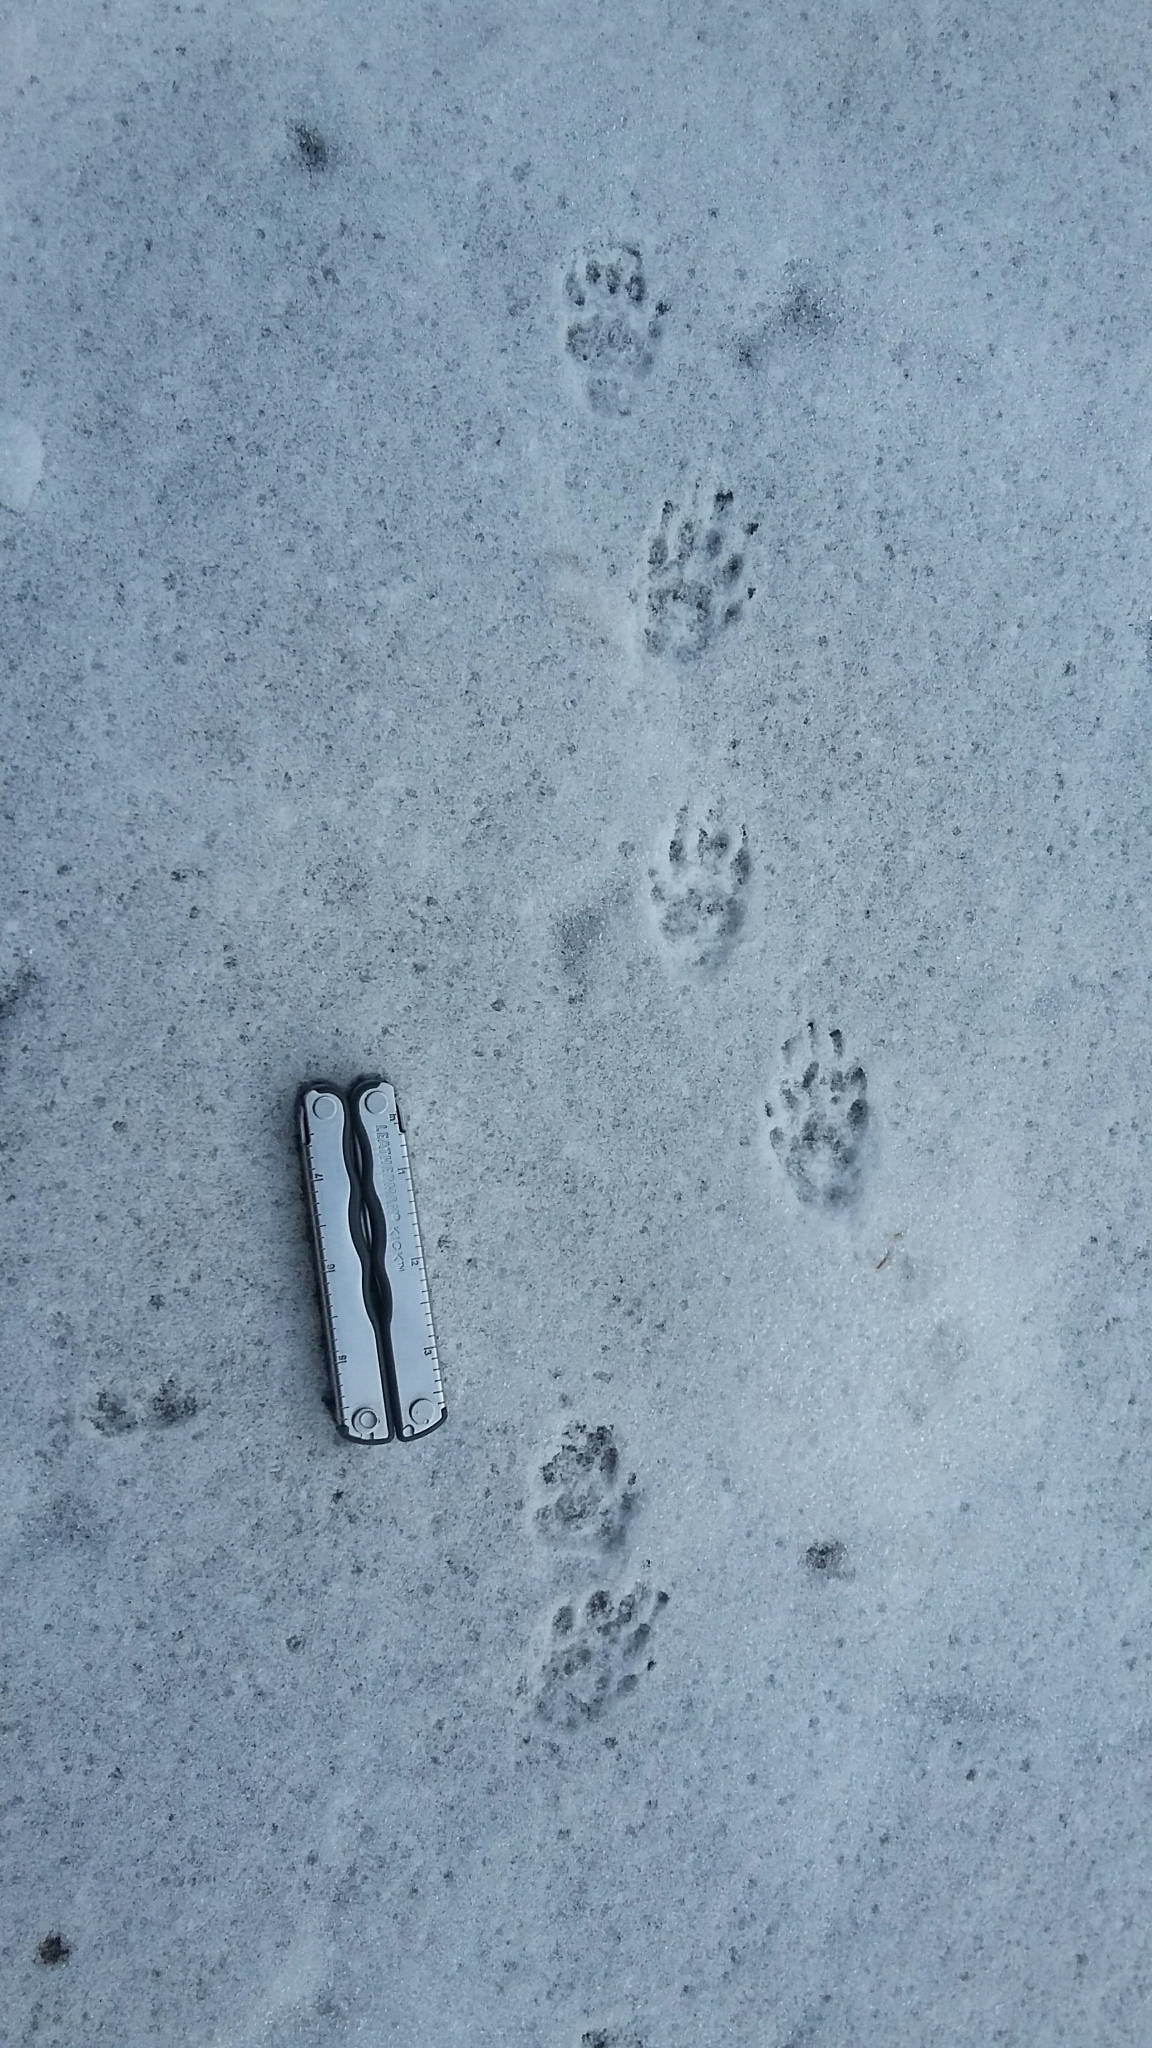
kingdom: Animalia
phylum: Chordata
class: Mammalia
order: Carnivora
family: Mephitidae
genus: Mephitis
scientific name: Mephitis mephitis
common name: Striped skunk
